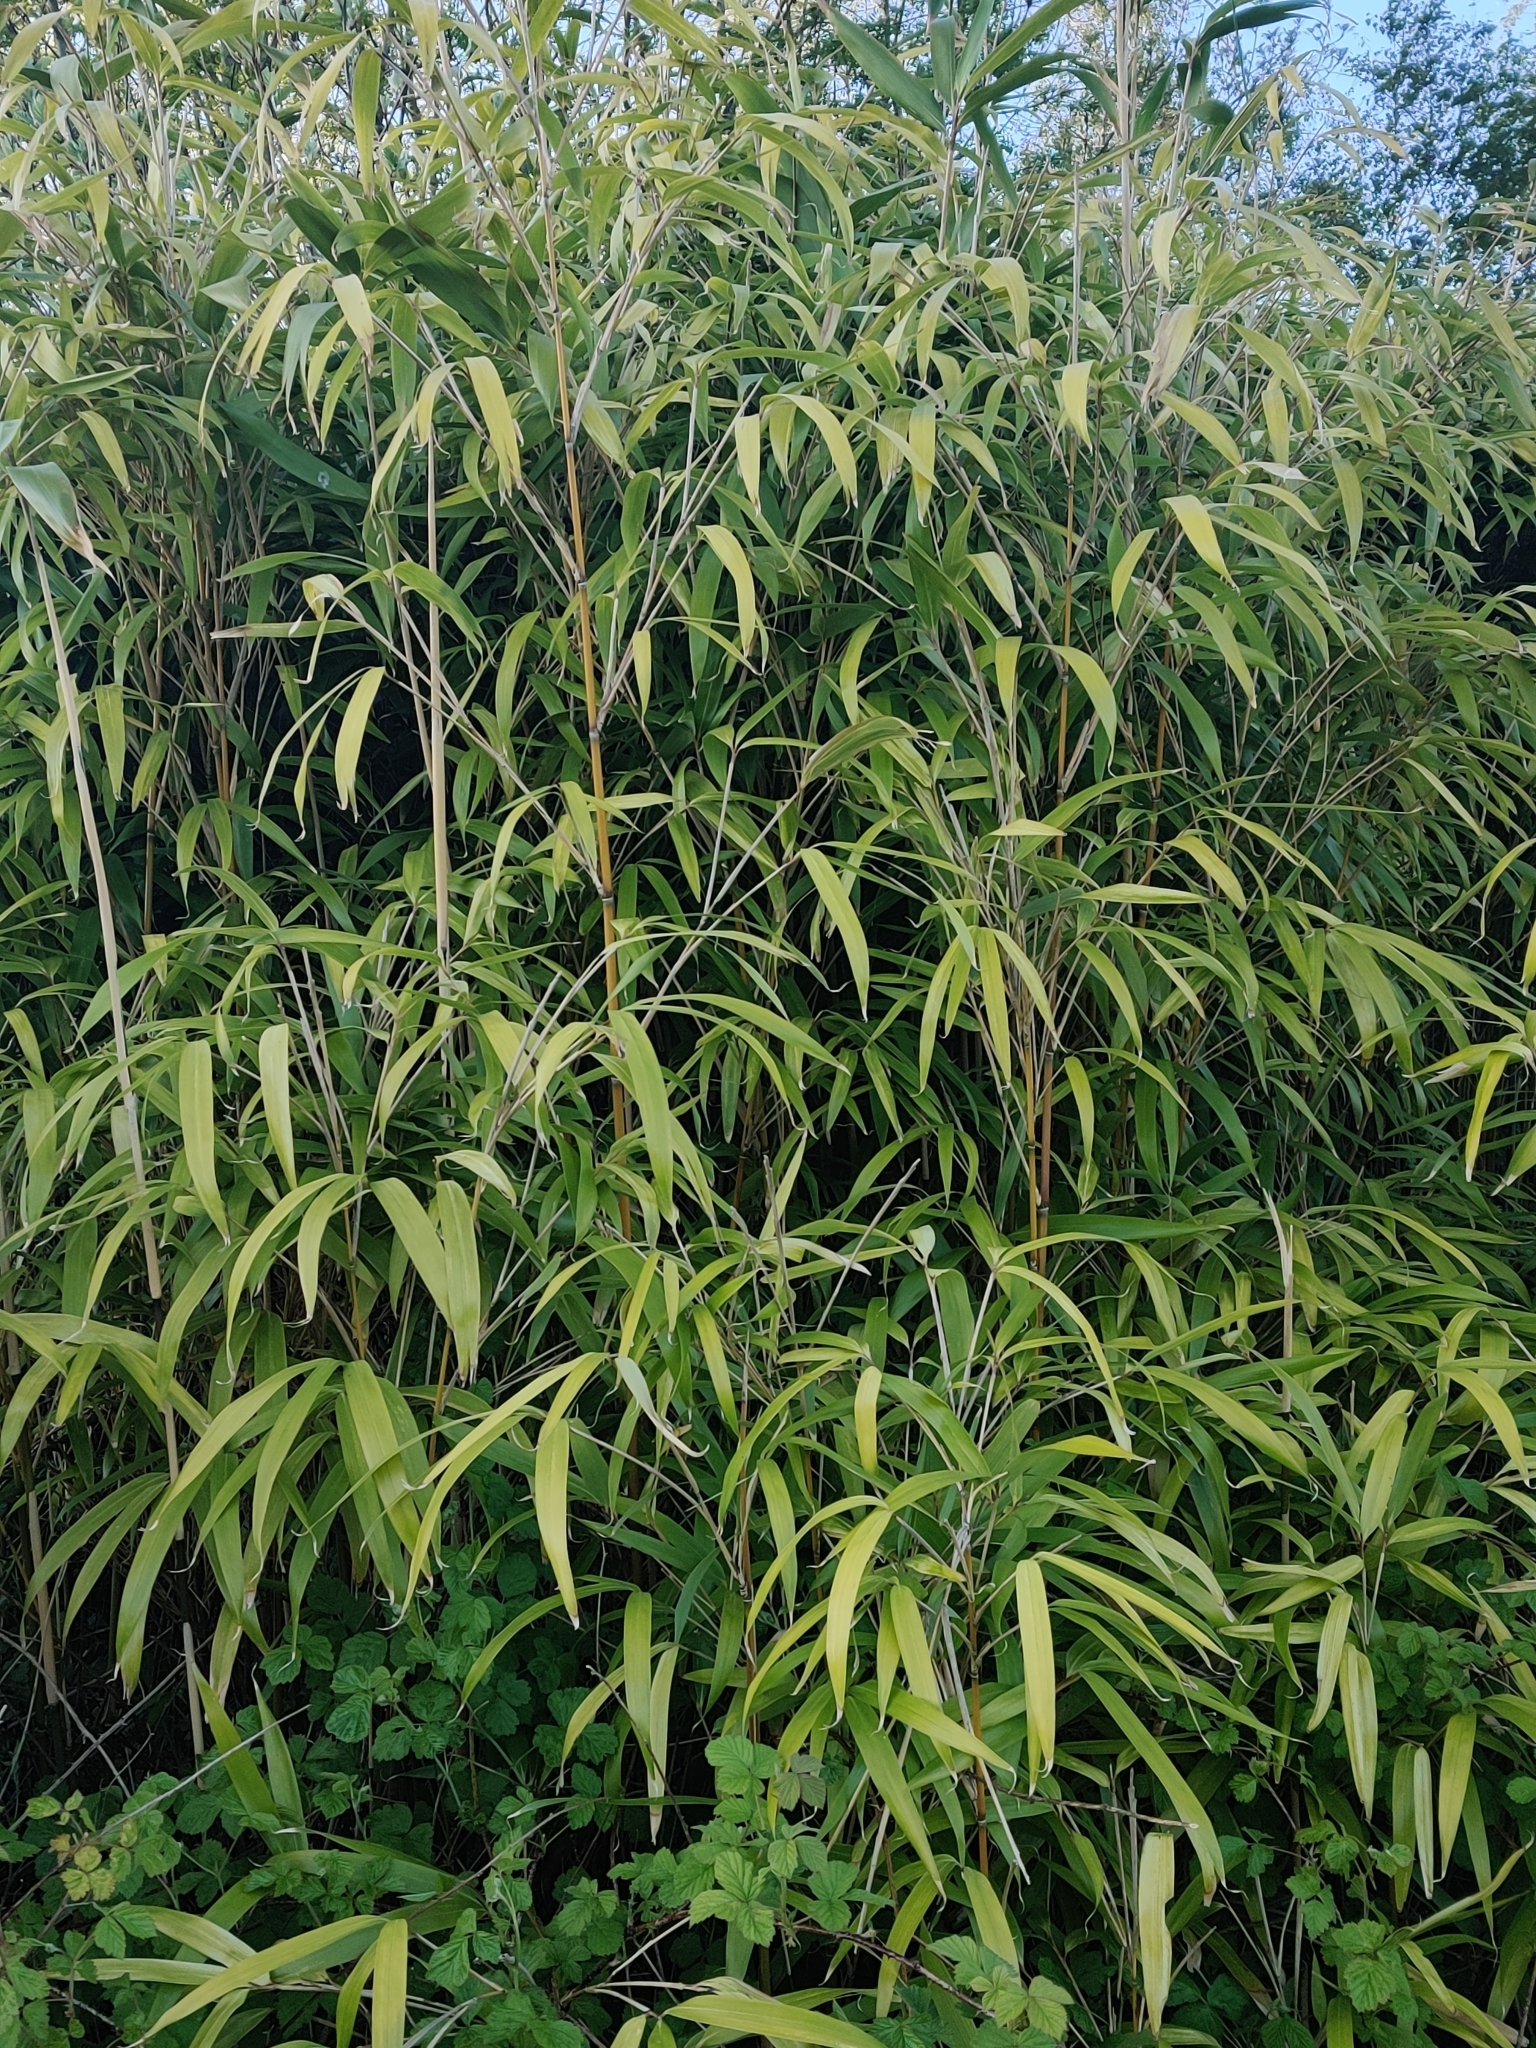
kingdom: Plantae
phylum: Tracheophyta
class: Liliopsida
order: Poales
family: Poaceae
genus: Pseudosasa
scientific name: Pseudosasa japonica
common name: Arrow bamboo
